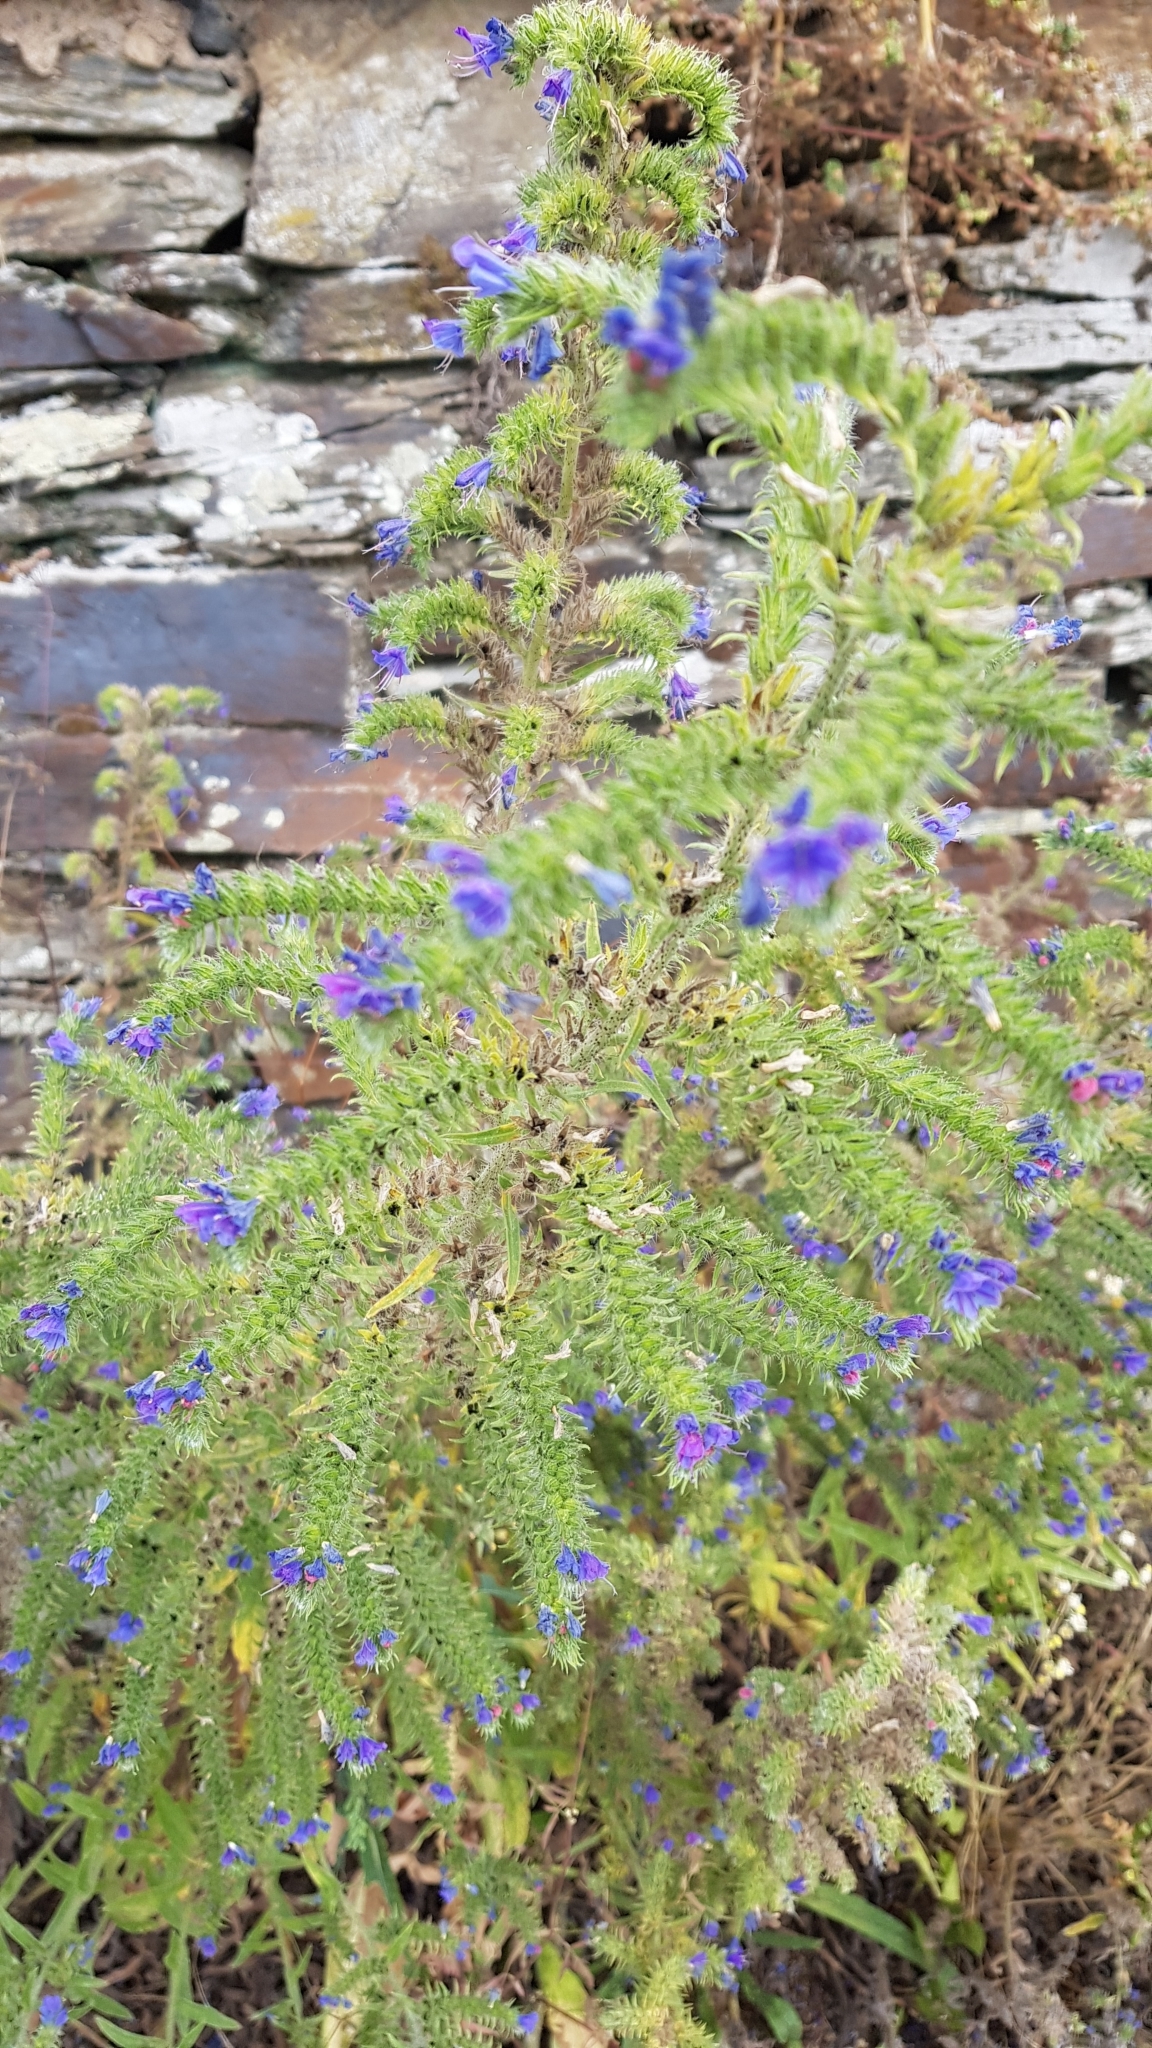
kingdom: Plantae
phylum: Tracheophyta
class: Magnoliopsida
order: Boraginales
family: Boraginaceae
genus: Echium
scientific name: Echium vulgare
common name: Common viper's bugloss
